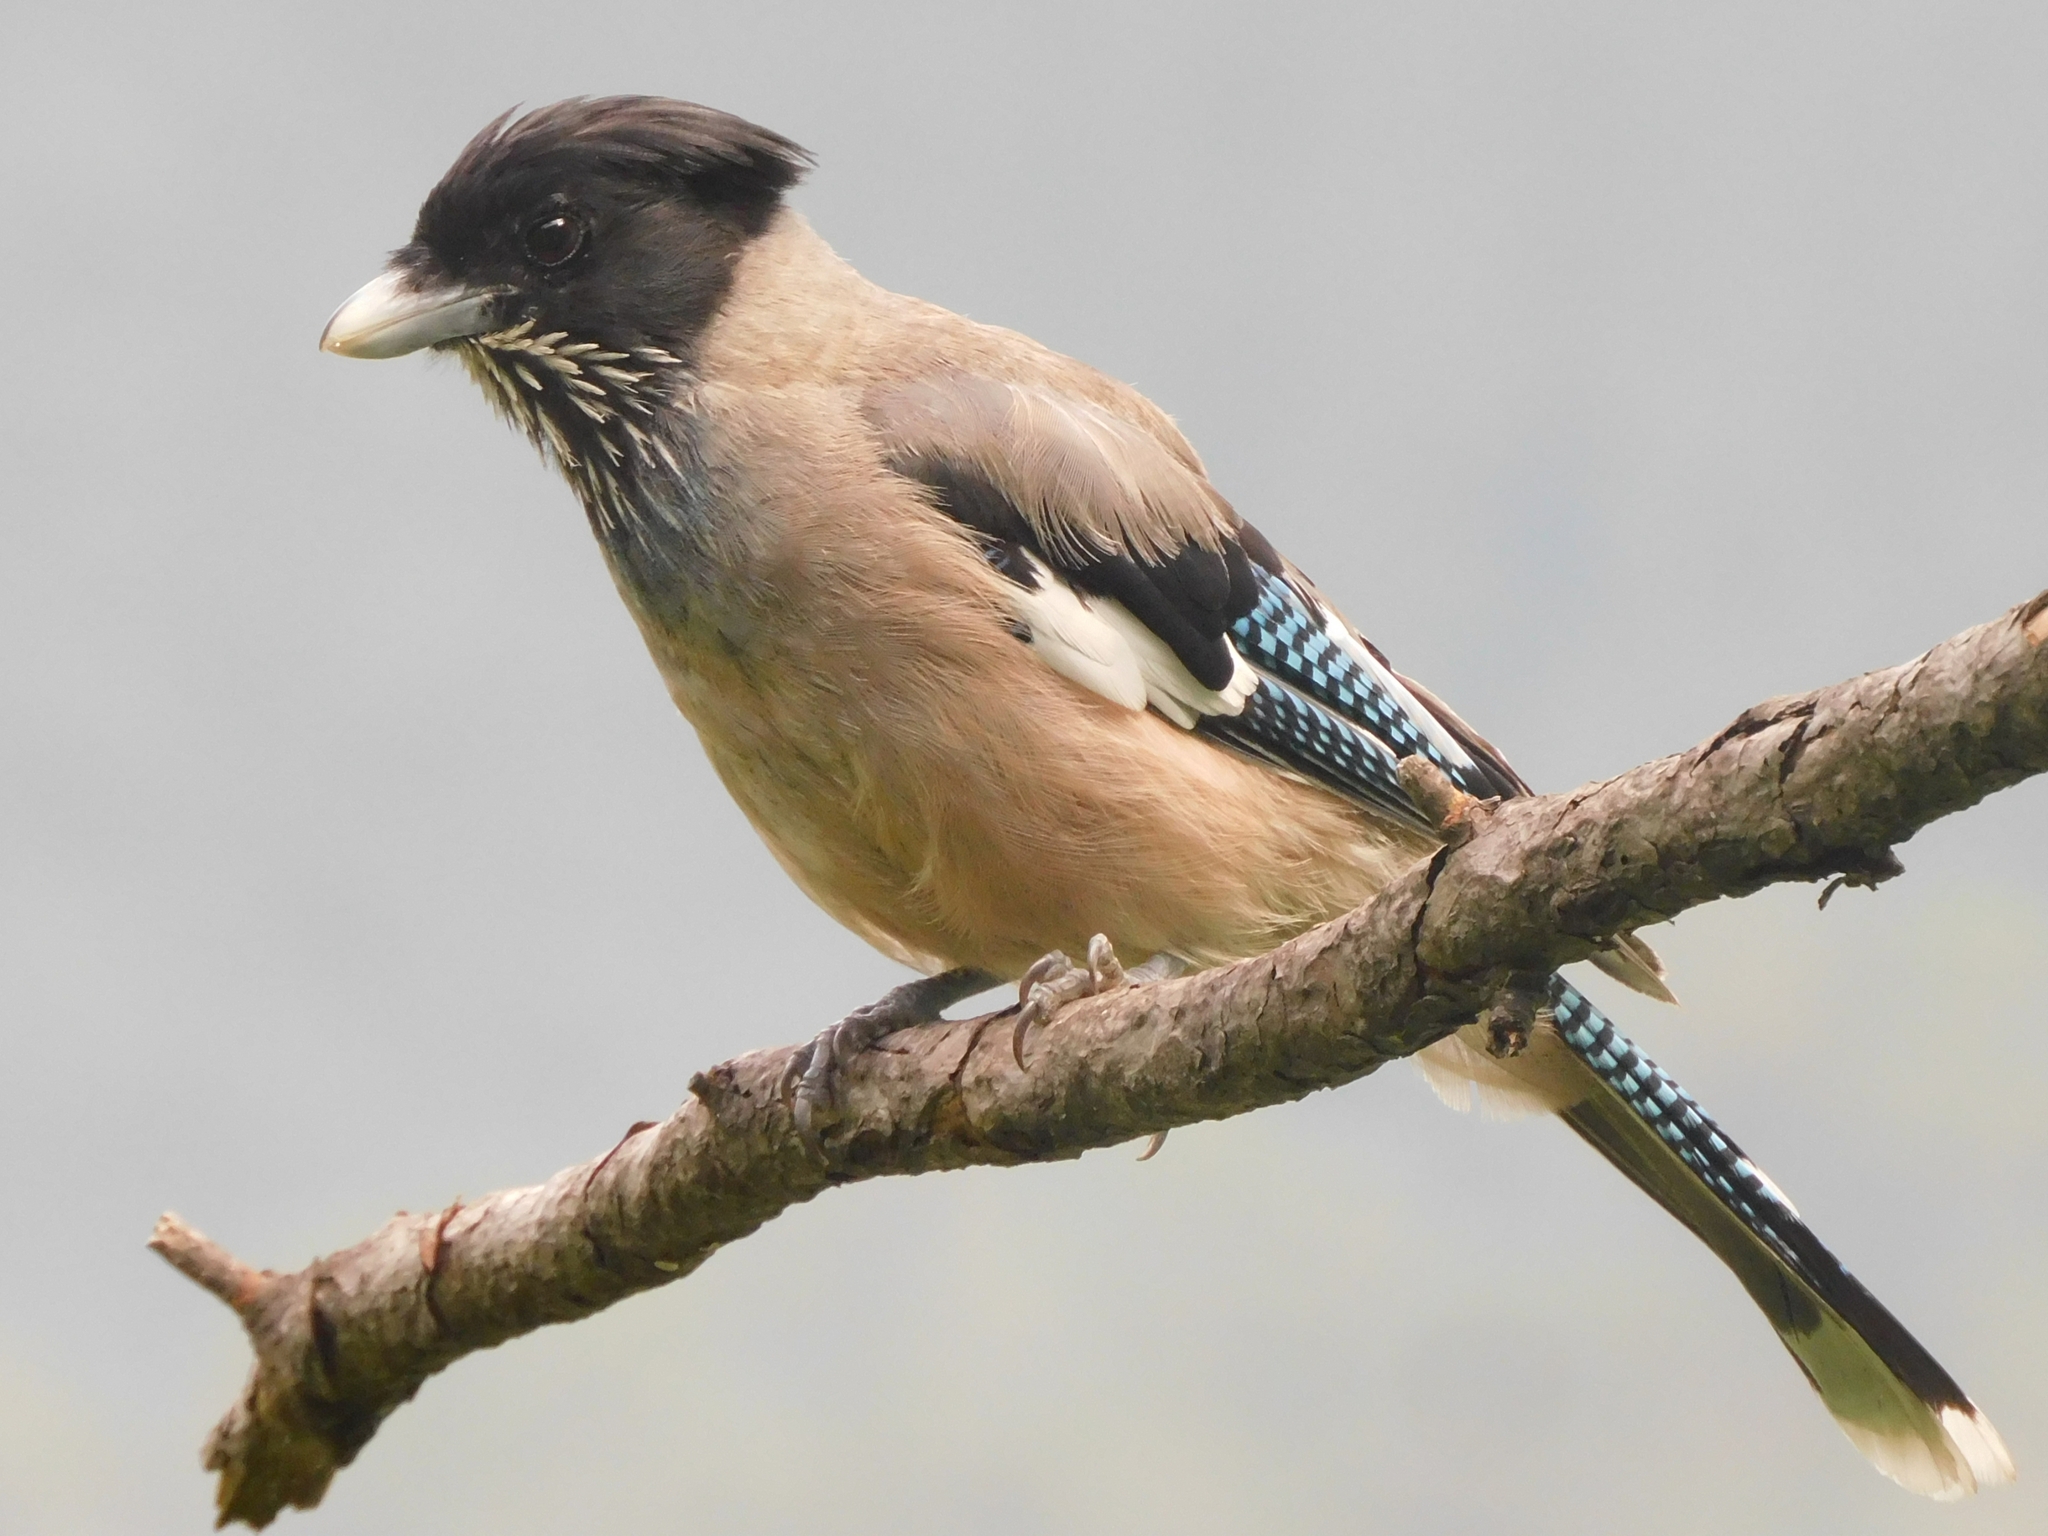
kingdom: Animalia
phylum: Chordata
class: Aves
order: Passeriformes
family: Corvidae
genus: Garrulus
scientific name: Garrulus lanceolatus
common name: Black-headed jay
